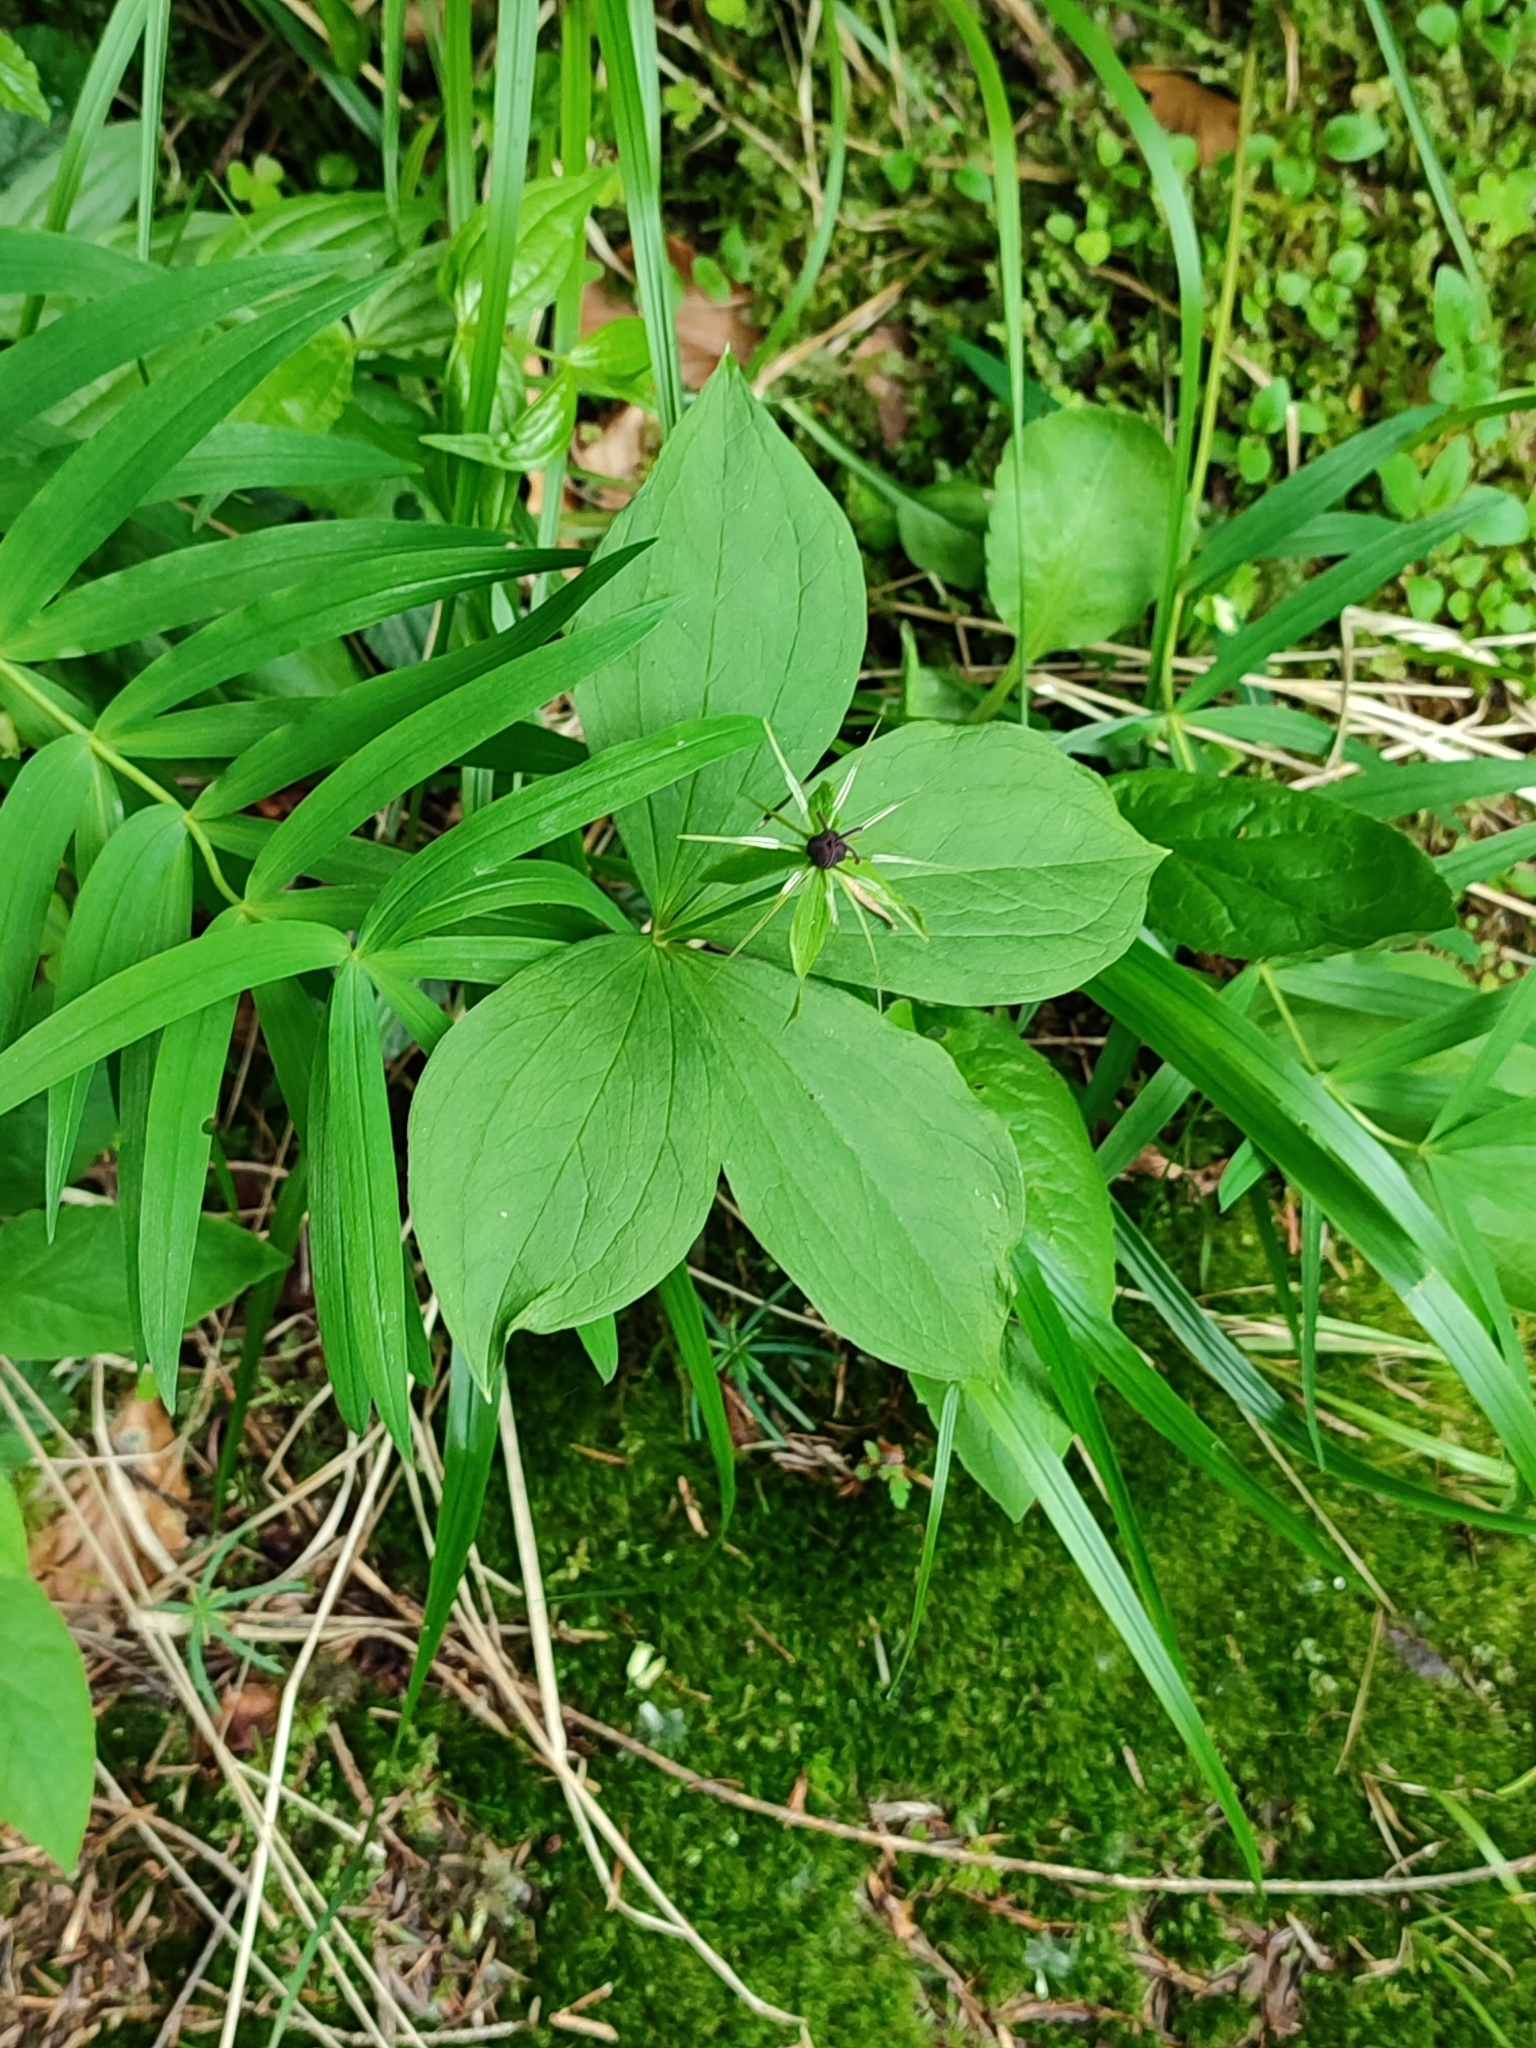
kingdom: Plantae
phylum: Tracheophyta
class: Liliopsida
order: Liliales
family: Melanthiaceae
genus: Paris
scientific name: Paris quadrifolia
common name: Herb-paris
